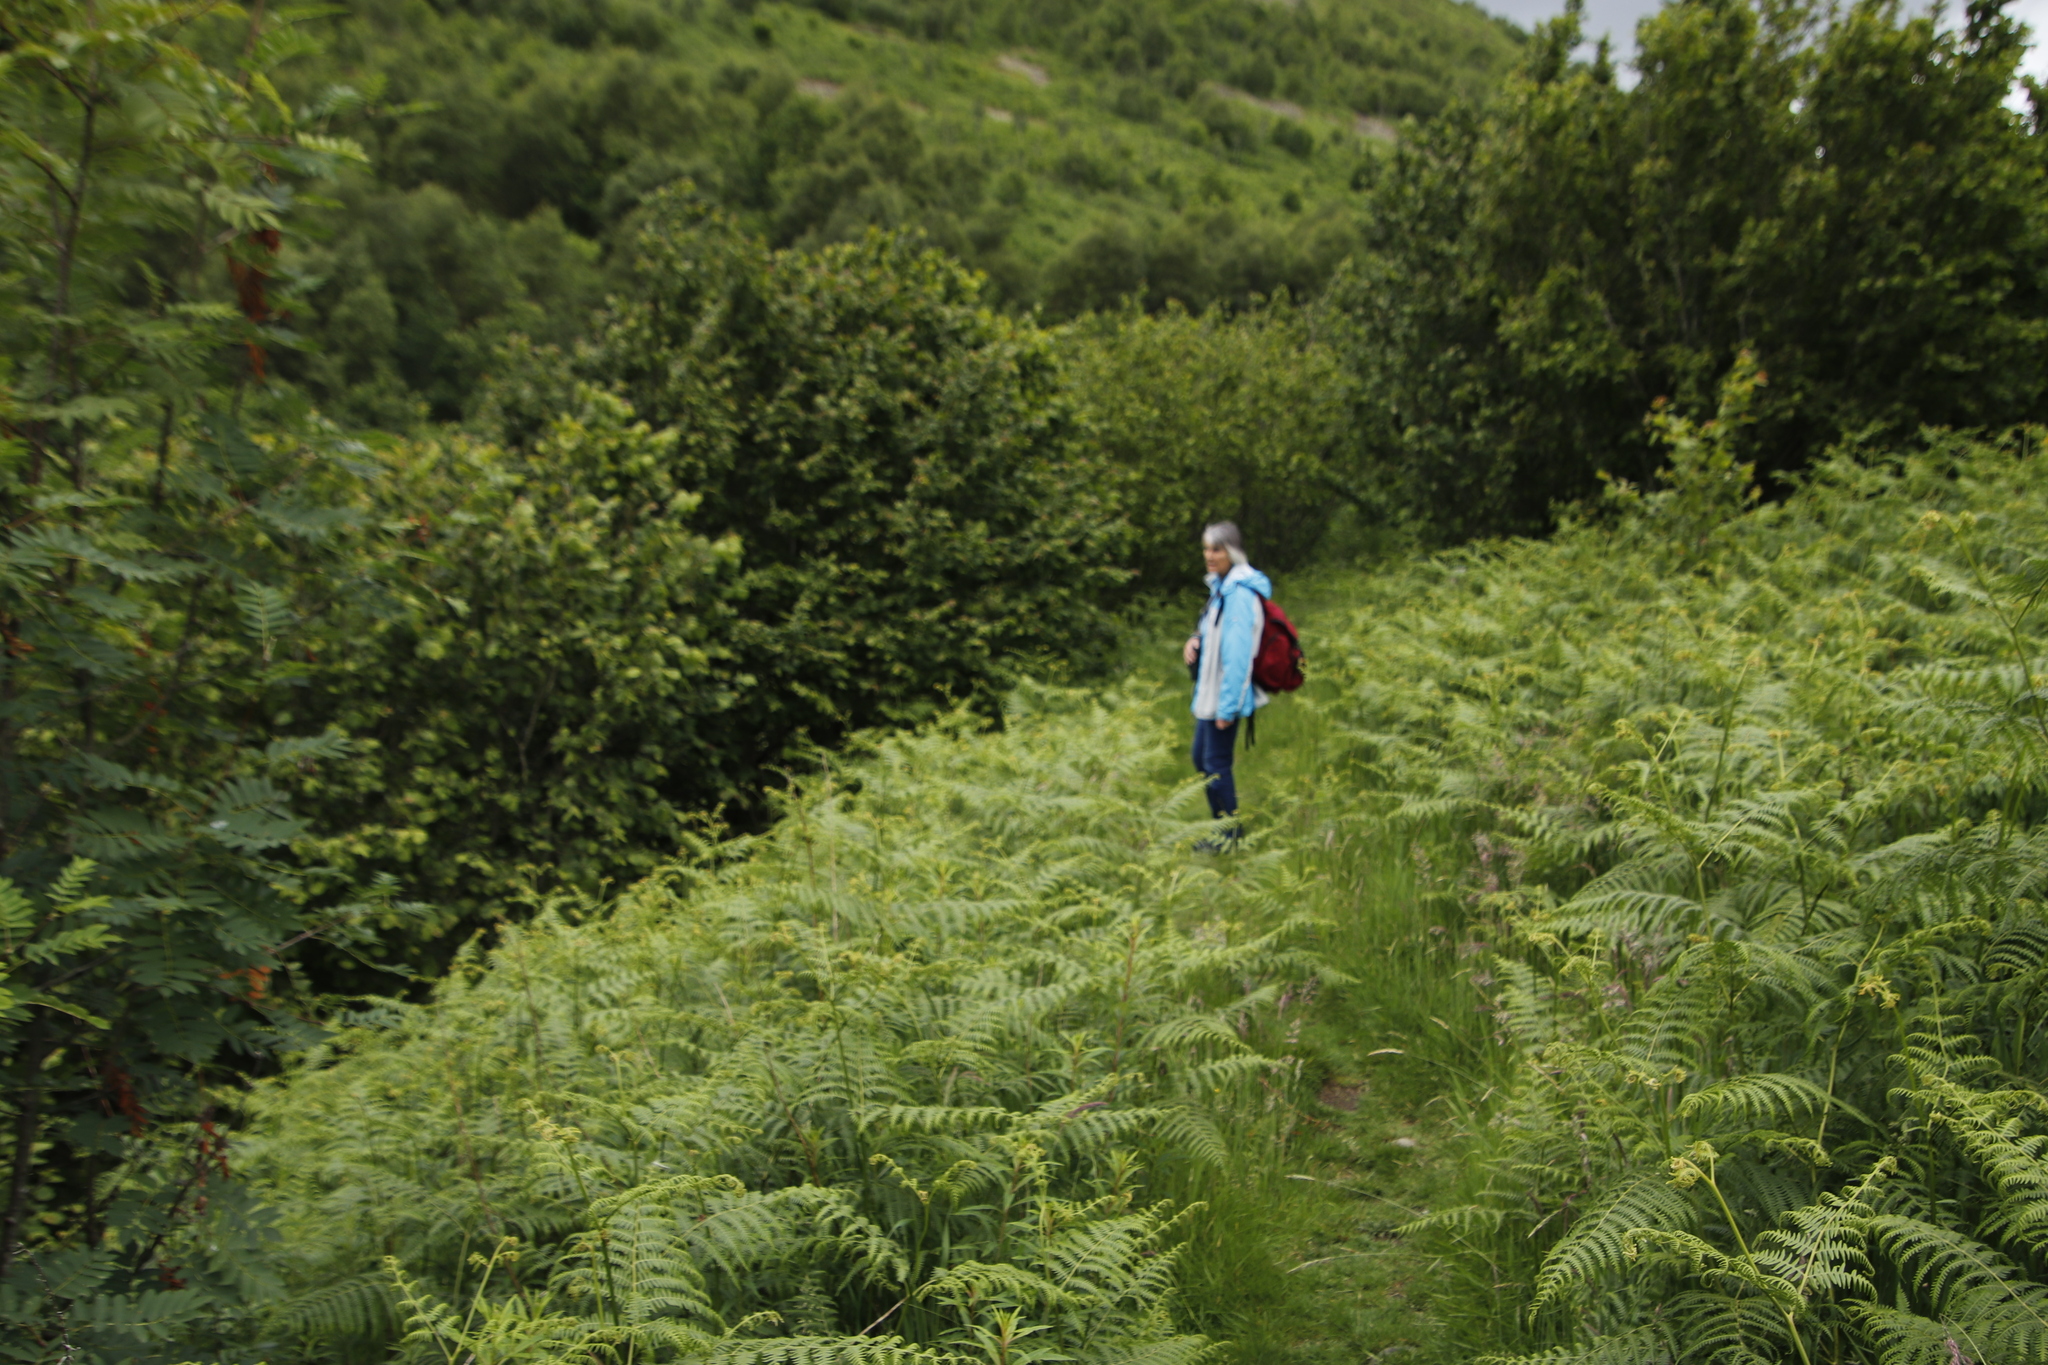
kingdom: Plantae
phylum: Tracheophyta
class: Polypodiopsida
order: Polypodiales
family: Dennstaedtiaceae
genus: Pteridium
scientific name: Pteridium aquilinum
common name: Bracken
